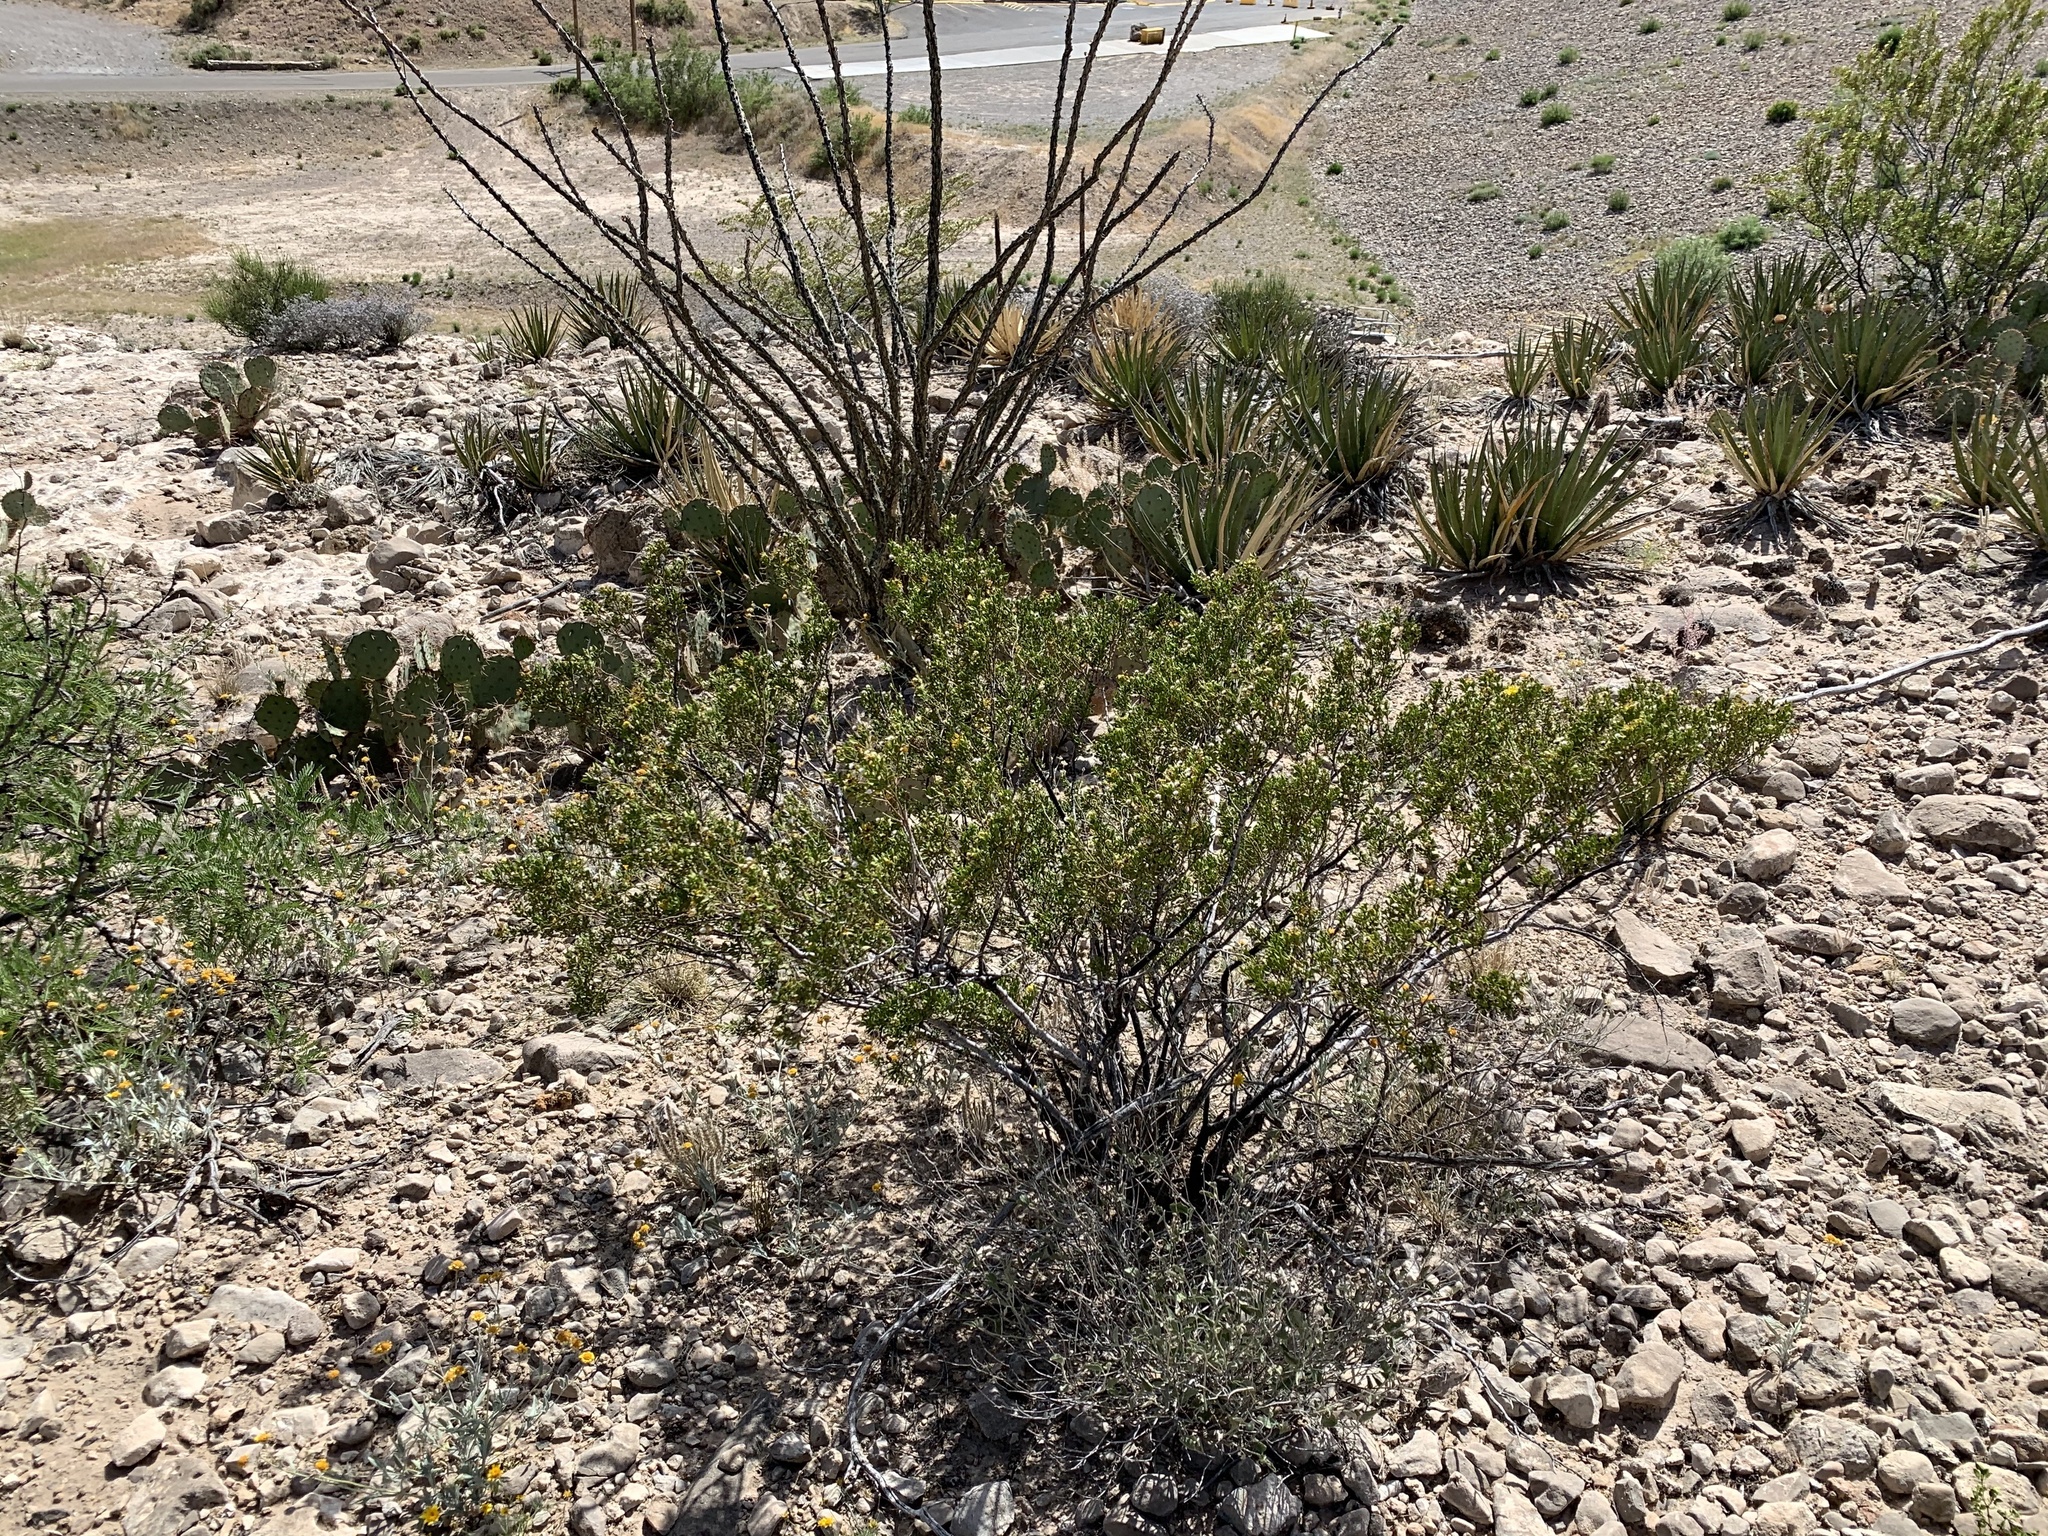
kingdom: Plantae
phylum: Tracheophyta
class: Magnoliopsida
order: Zygophyllales
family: Zygophyllaceae
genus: Larrea
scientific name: Larrea tridentata
